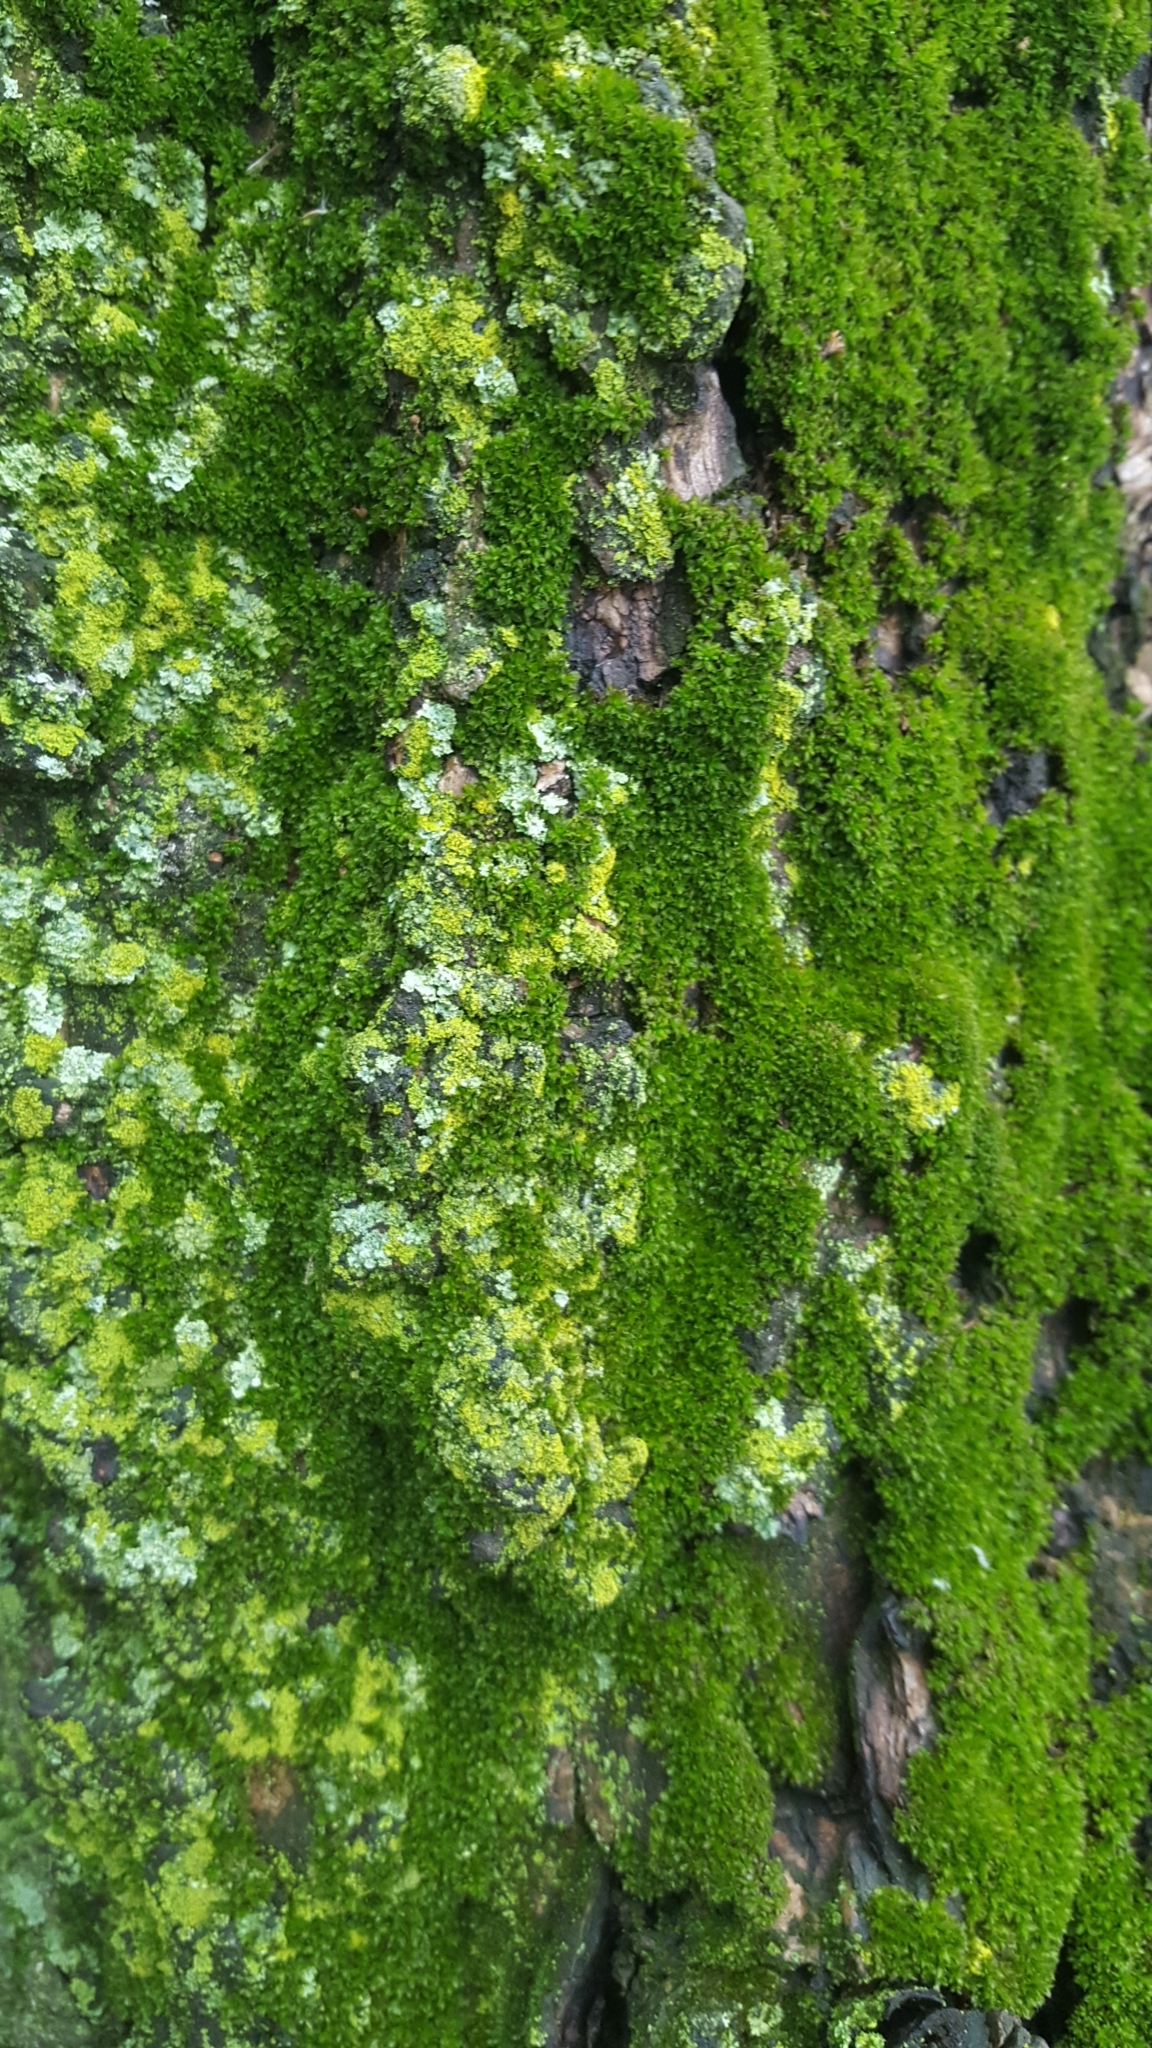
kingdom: Fungi
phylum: Ascomycota
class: Candelariomycetes
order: Candelariales
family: Candelariaceae
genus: Candelaria
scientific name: Candelaria concolor
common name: Candleflame lichen
